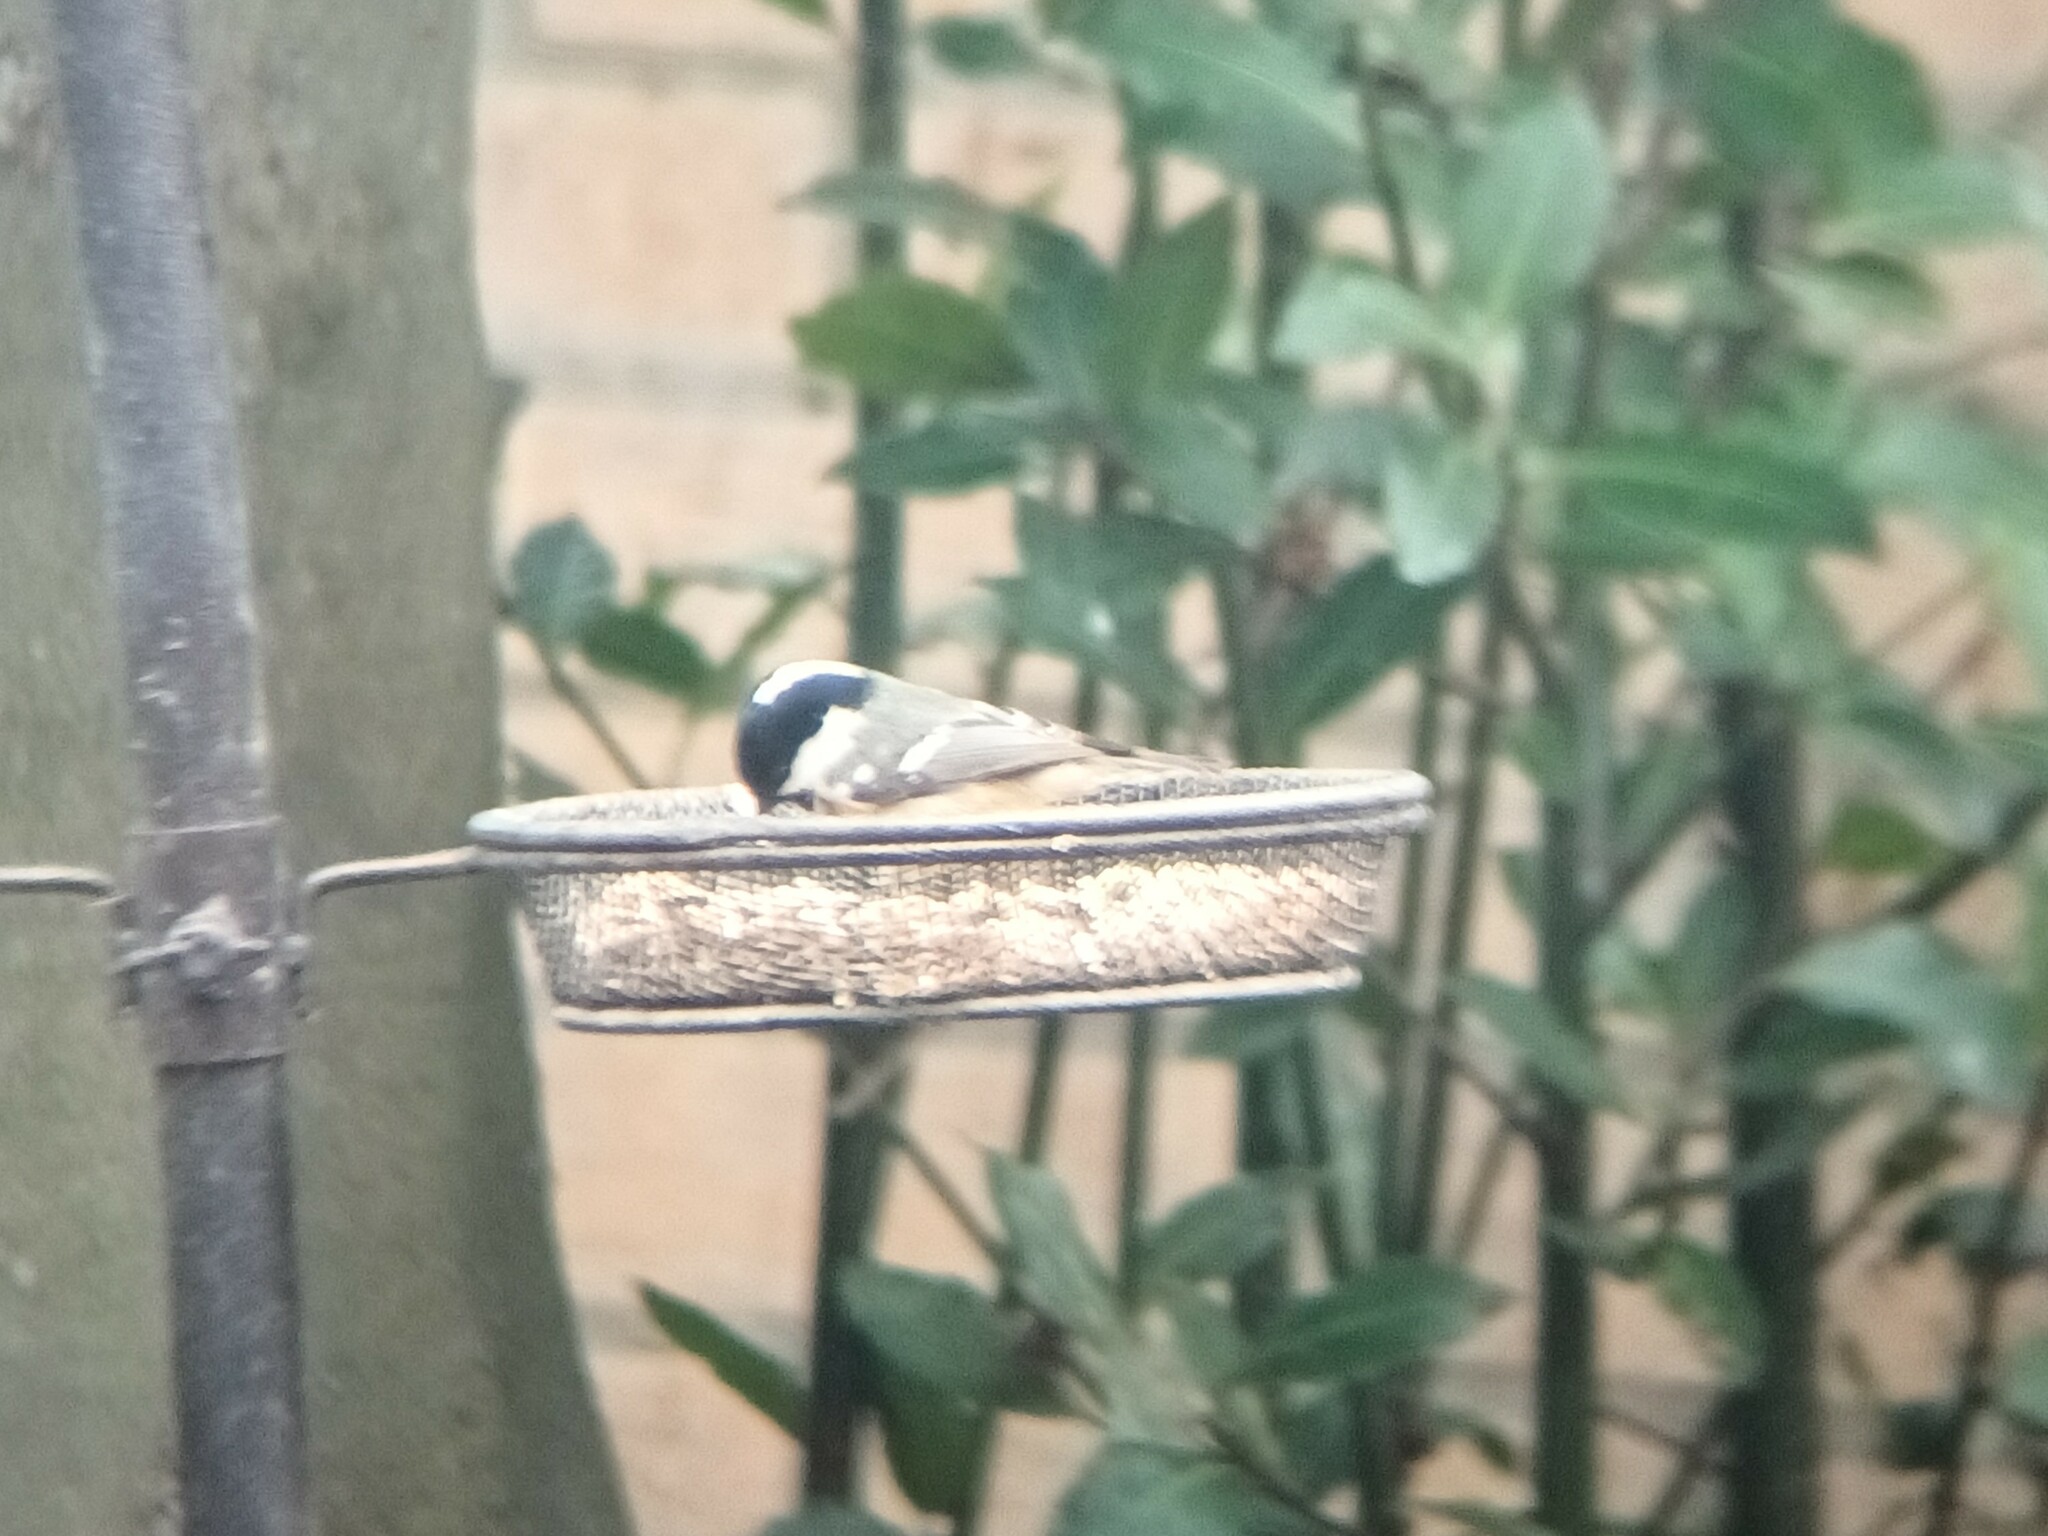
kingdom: Animalia
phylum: Chordata
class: Aves
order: Passeriformes
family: Paridae
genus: Periparus
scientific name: Periparus ater
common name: Coal tit
